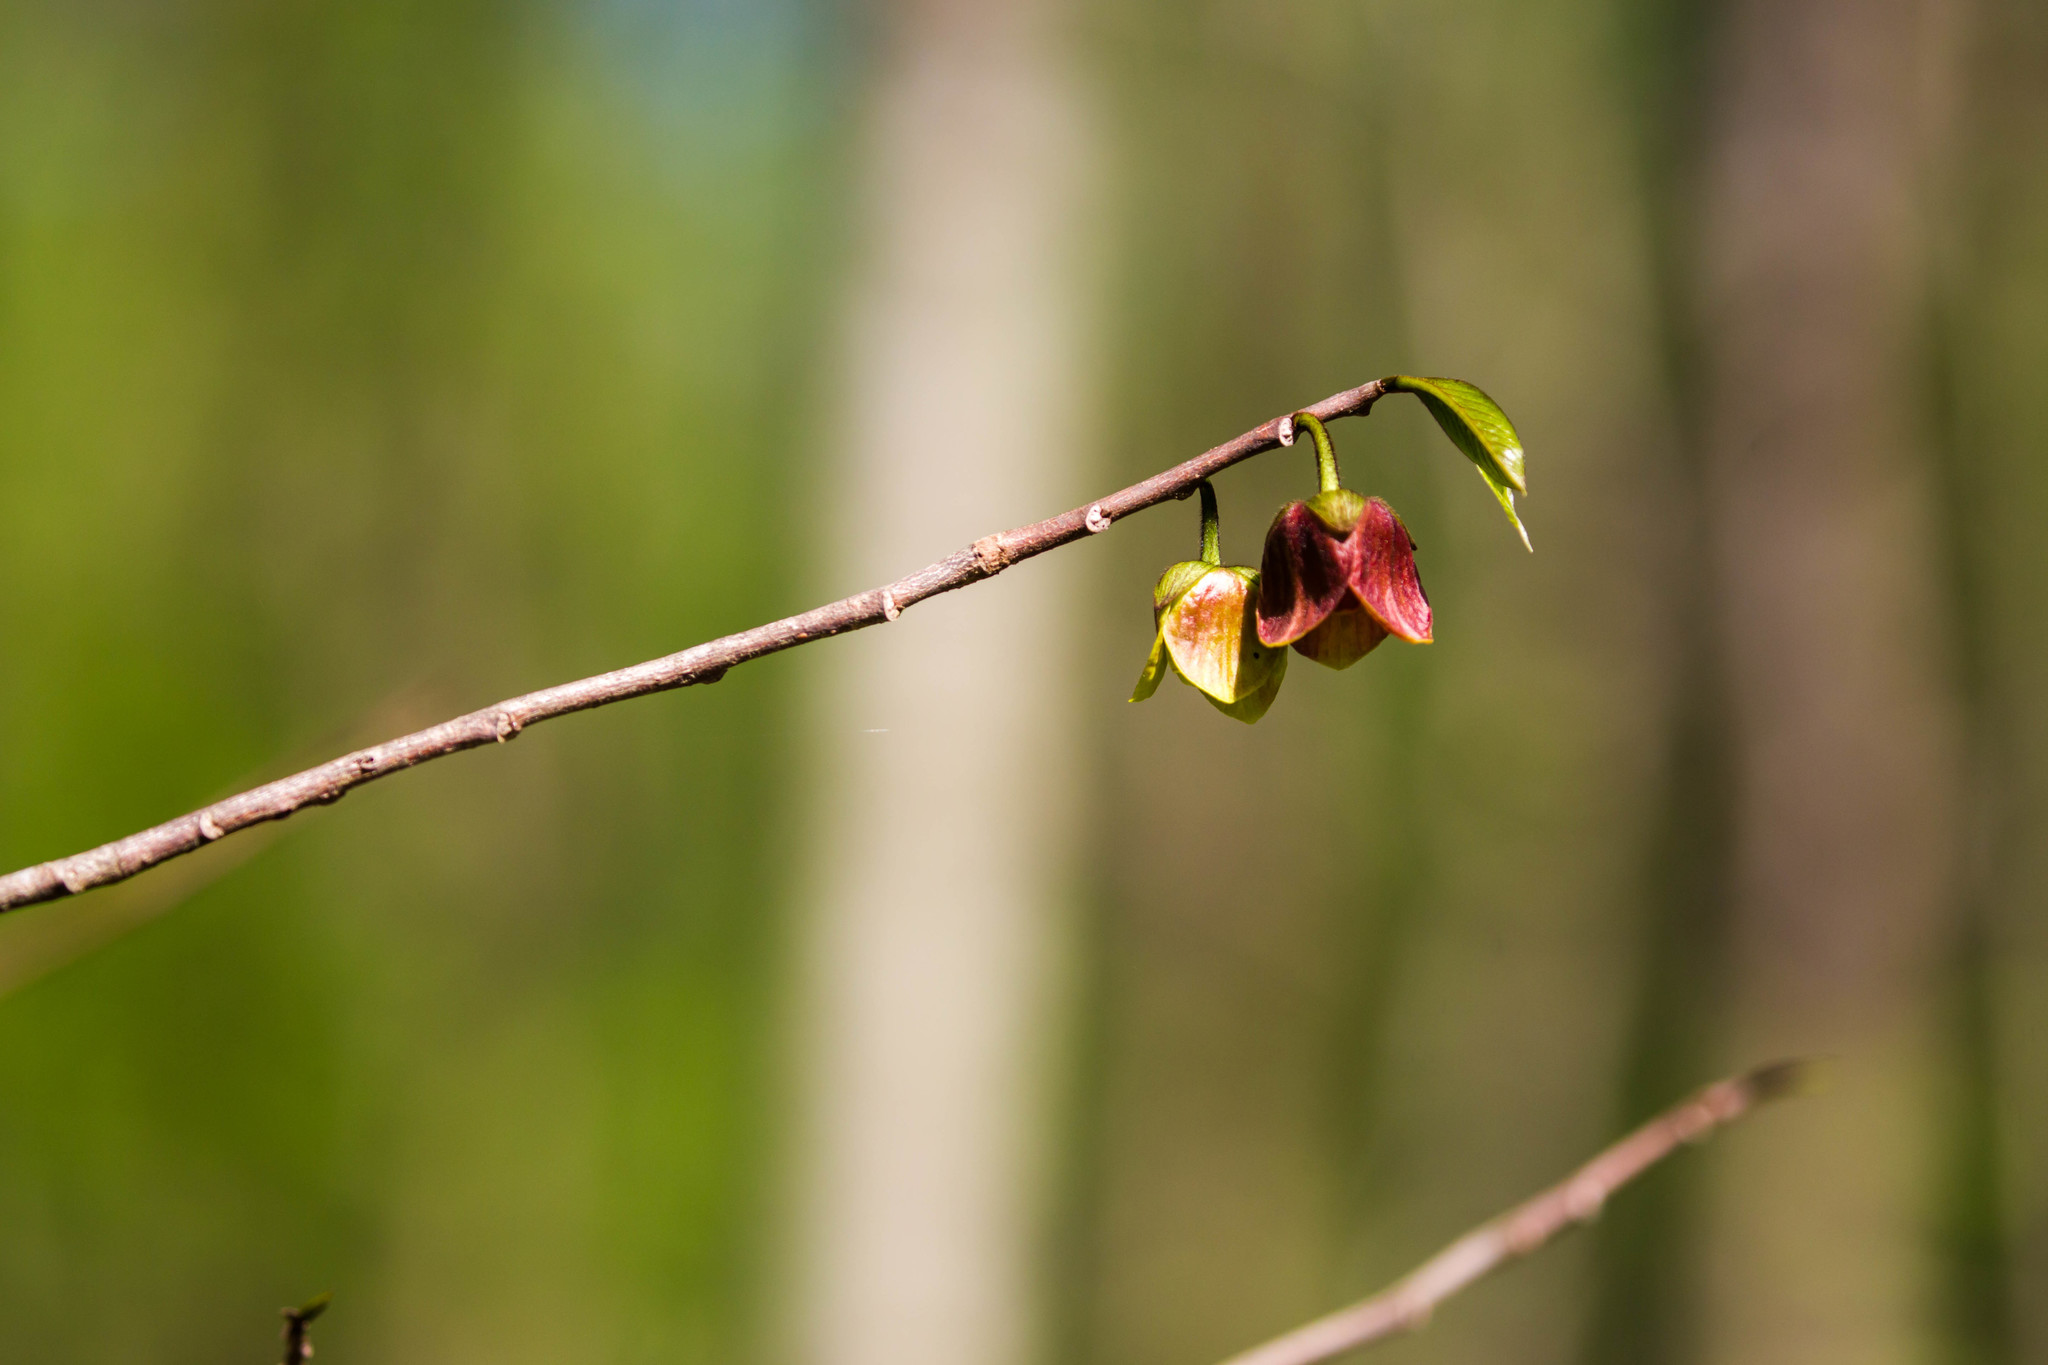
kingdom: Plantae
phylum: Tracheophyta
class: Magnoliopsida
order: Magnoliales
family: Annonaceae
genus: Asimina
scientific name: Asimina triloba
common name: Dog-banana
